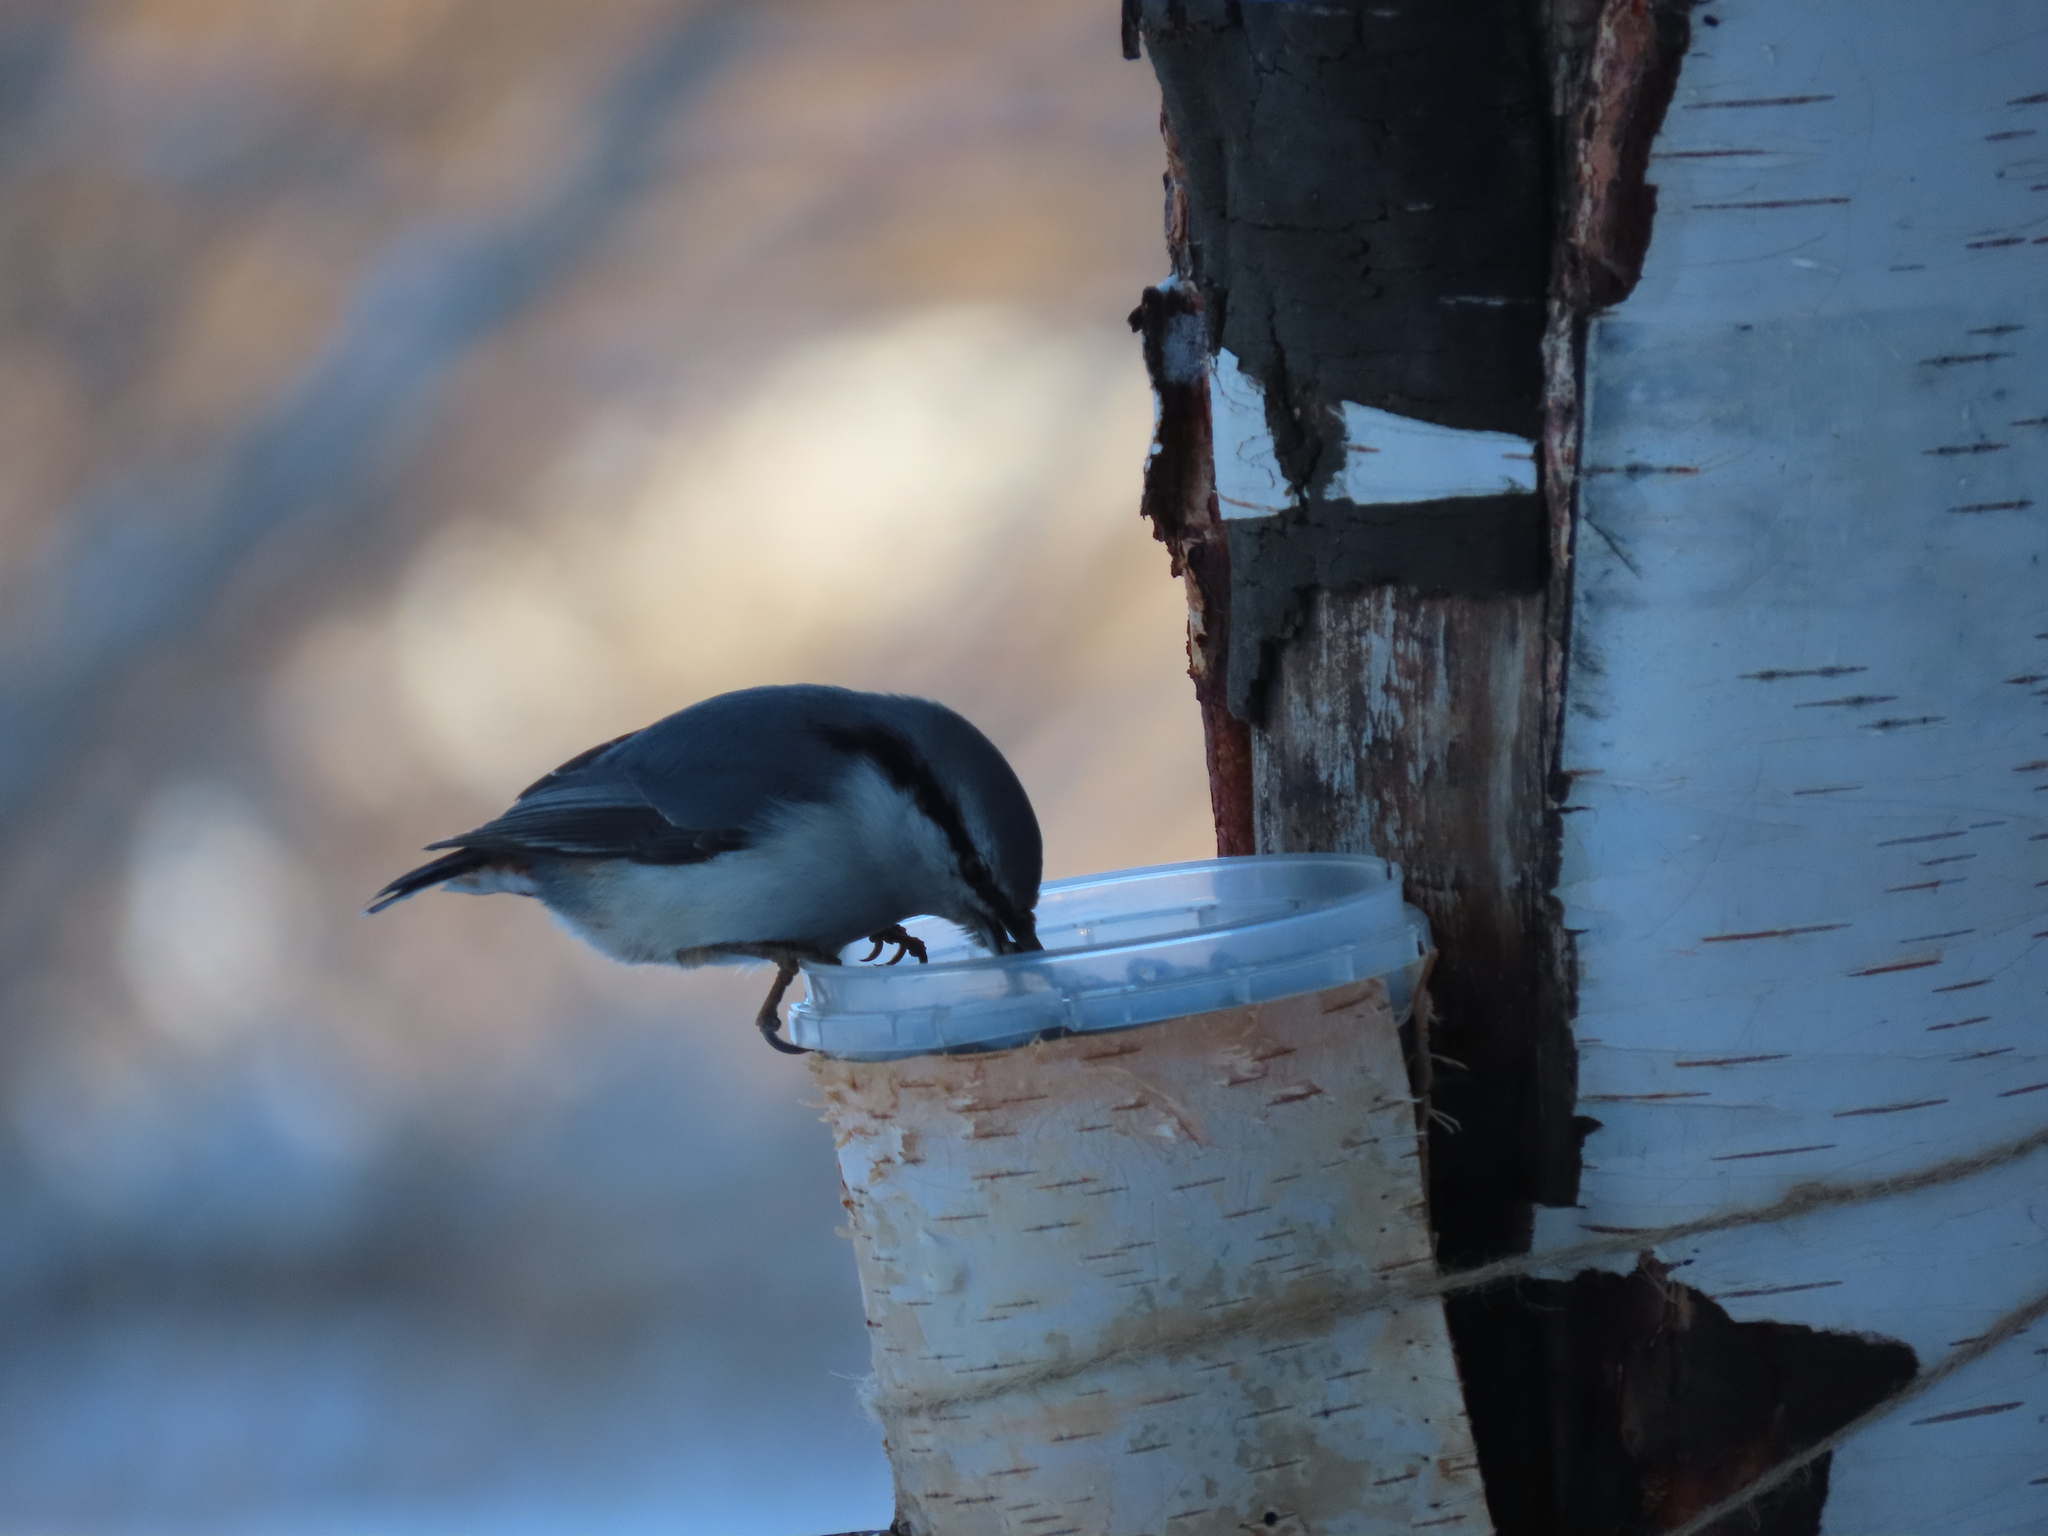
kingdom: Animalia
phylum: Chordata
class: Aves
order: Passeriformes
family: Sittidae
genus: Sitta
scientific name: Sitta europaea
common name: Eurasian nuthatch
